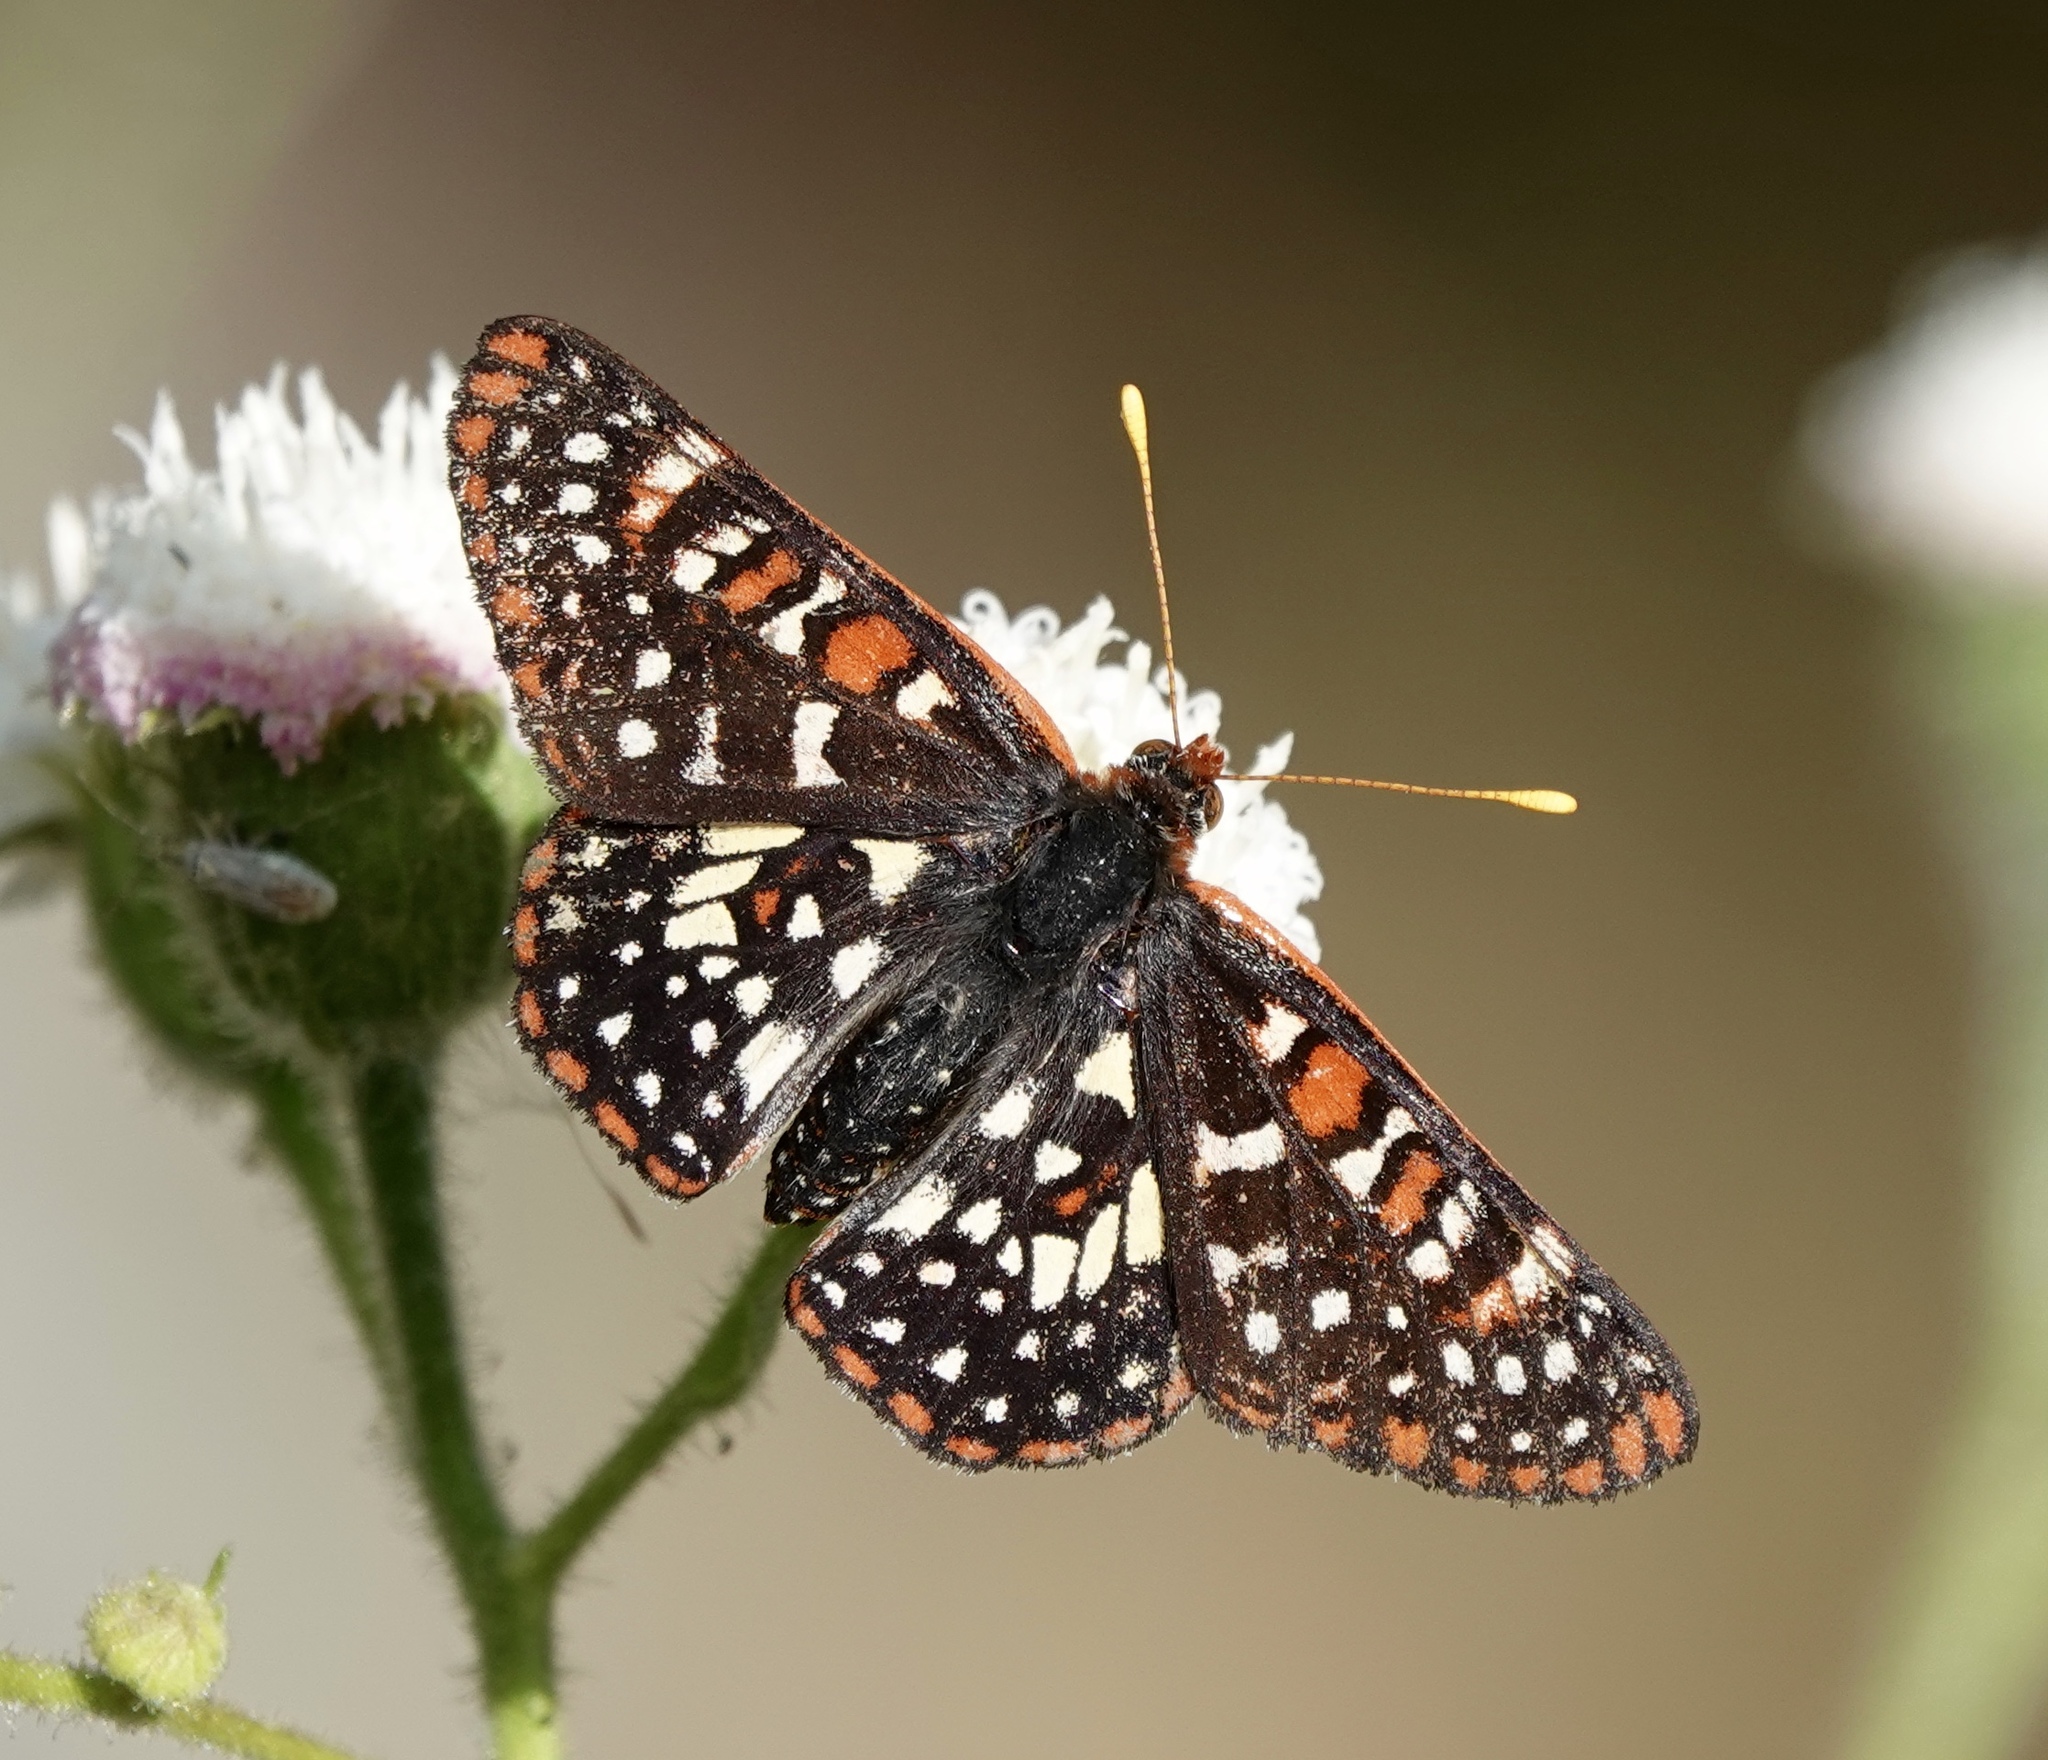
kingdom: Animalia
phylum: Arthropoda
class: Insecta
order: Lepidoptera
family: Nymphalidae
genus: Occidryas
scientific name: Occidryas chalcedona
